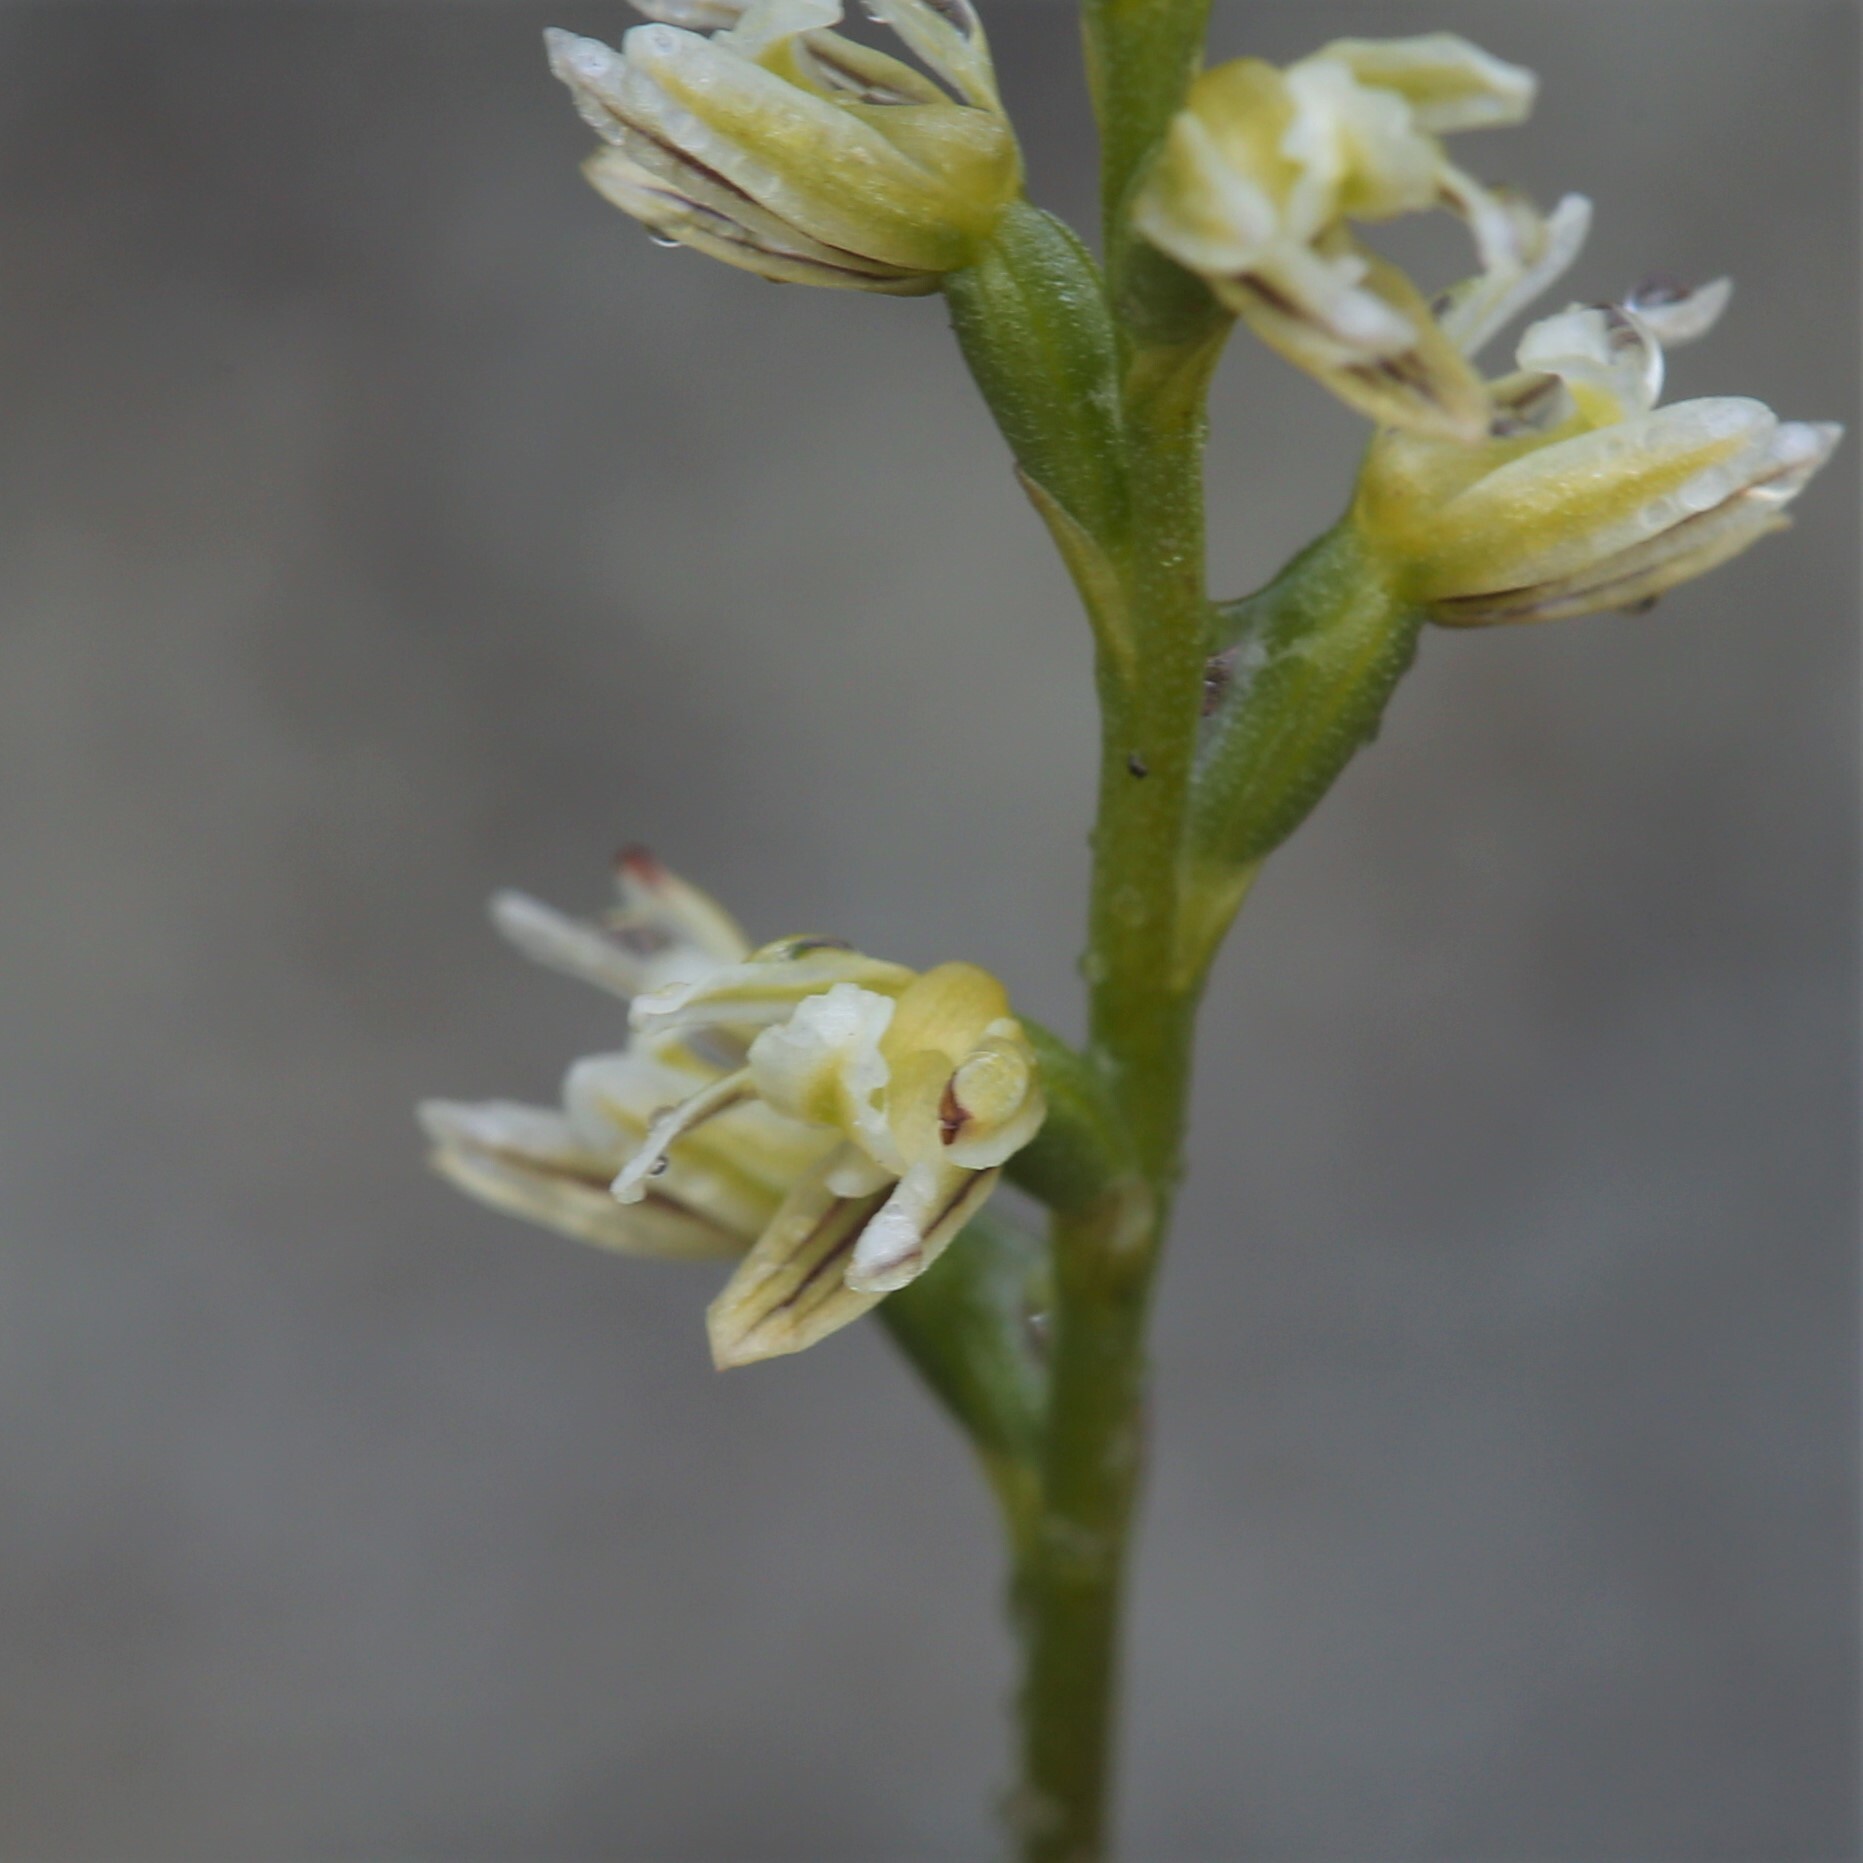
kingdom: Plantae
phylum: Tracheophyta
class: Liliopsida
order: Asparagales
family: Orchidaceae
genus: Prasophyllum
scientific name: Prasophyllum cyphochilum
